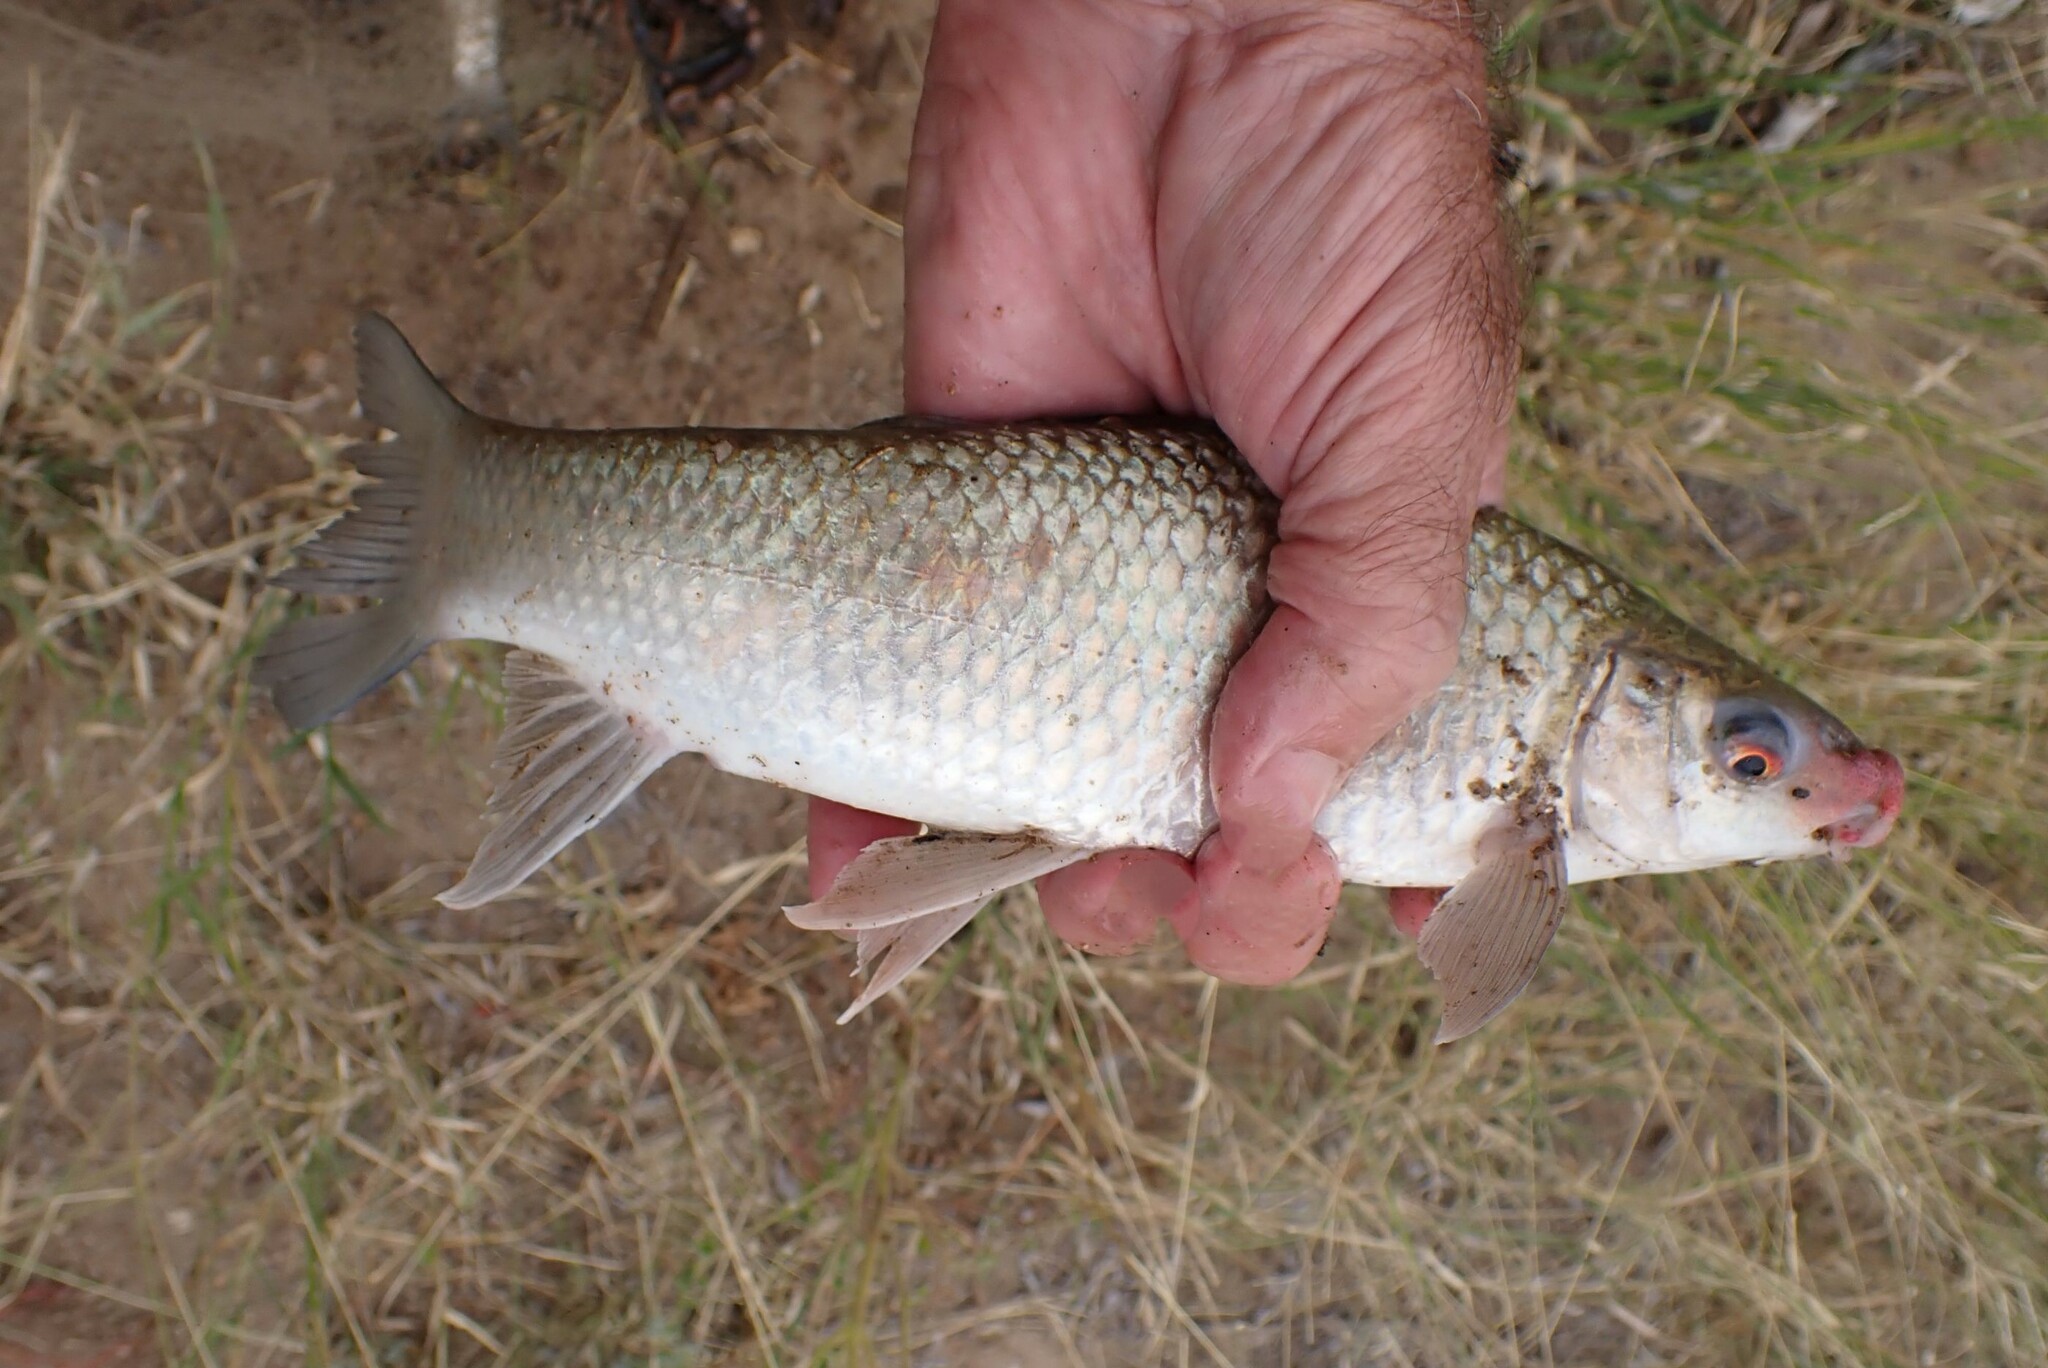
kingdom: Animalia
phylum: Chordata
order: Cypriniformes
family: Cyprinidae
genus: Labeo
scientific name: Labeo rosae
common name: Rednose labeo
